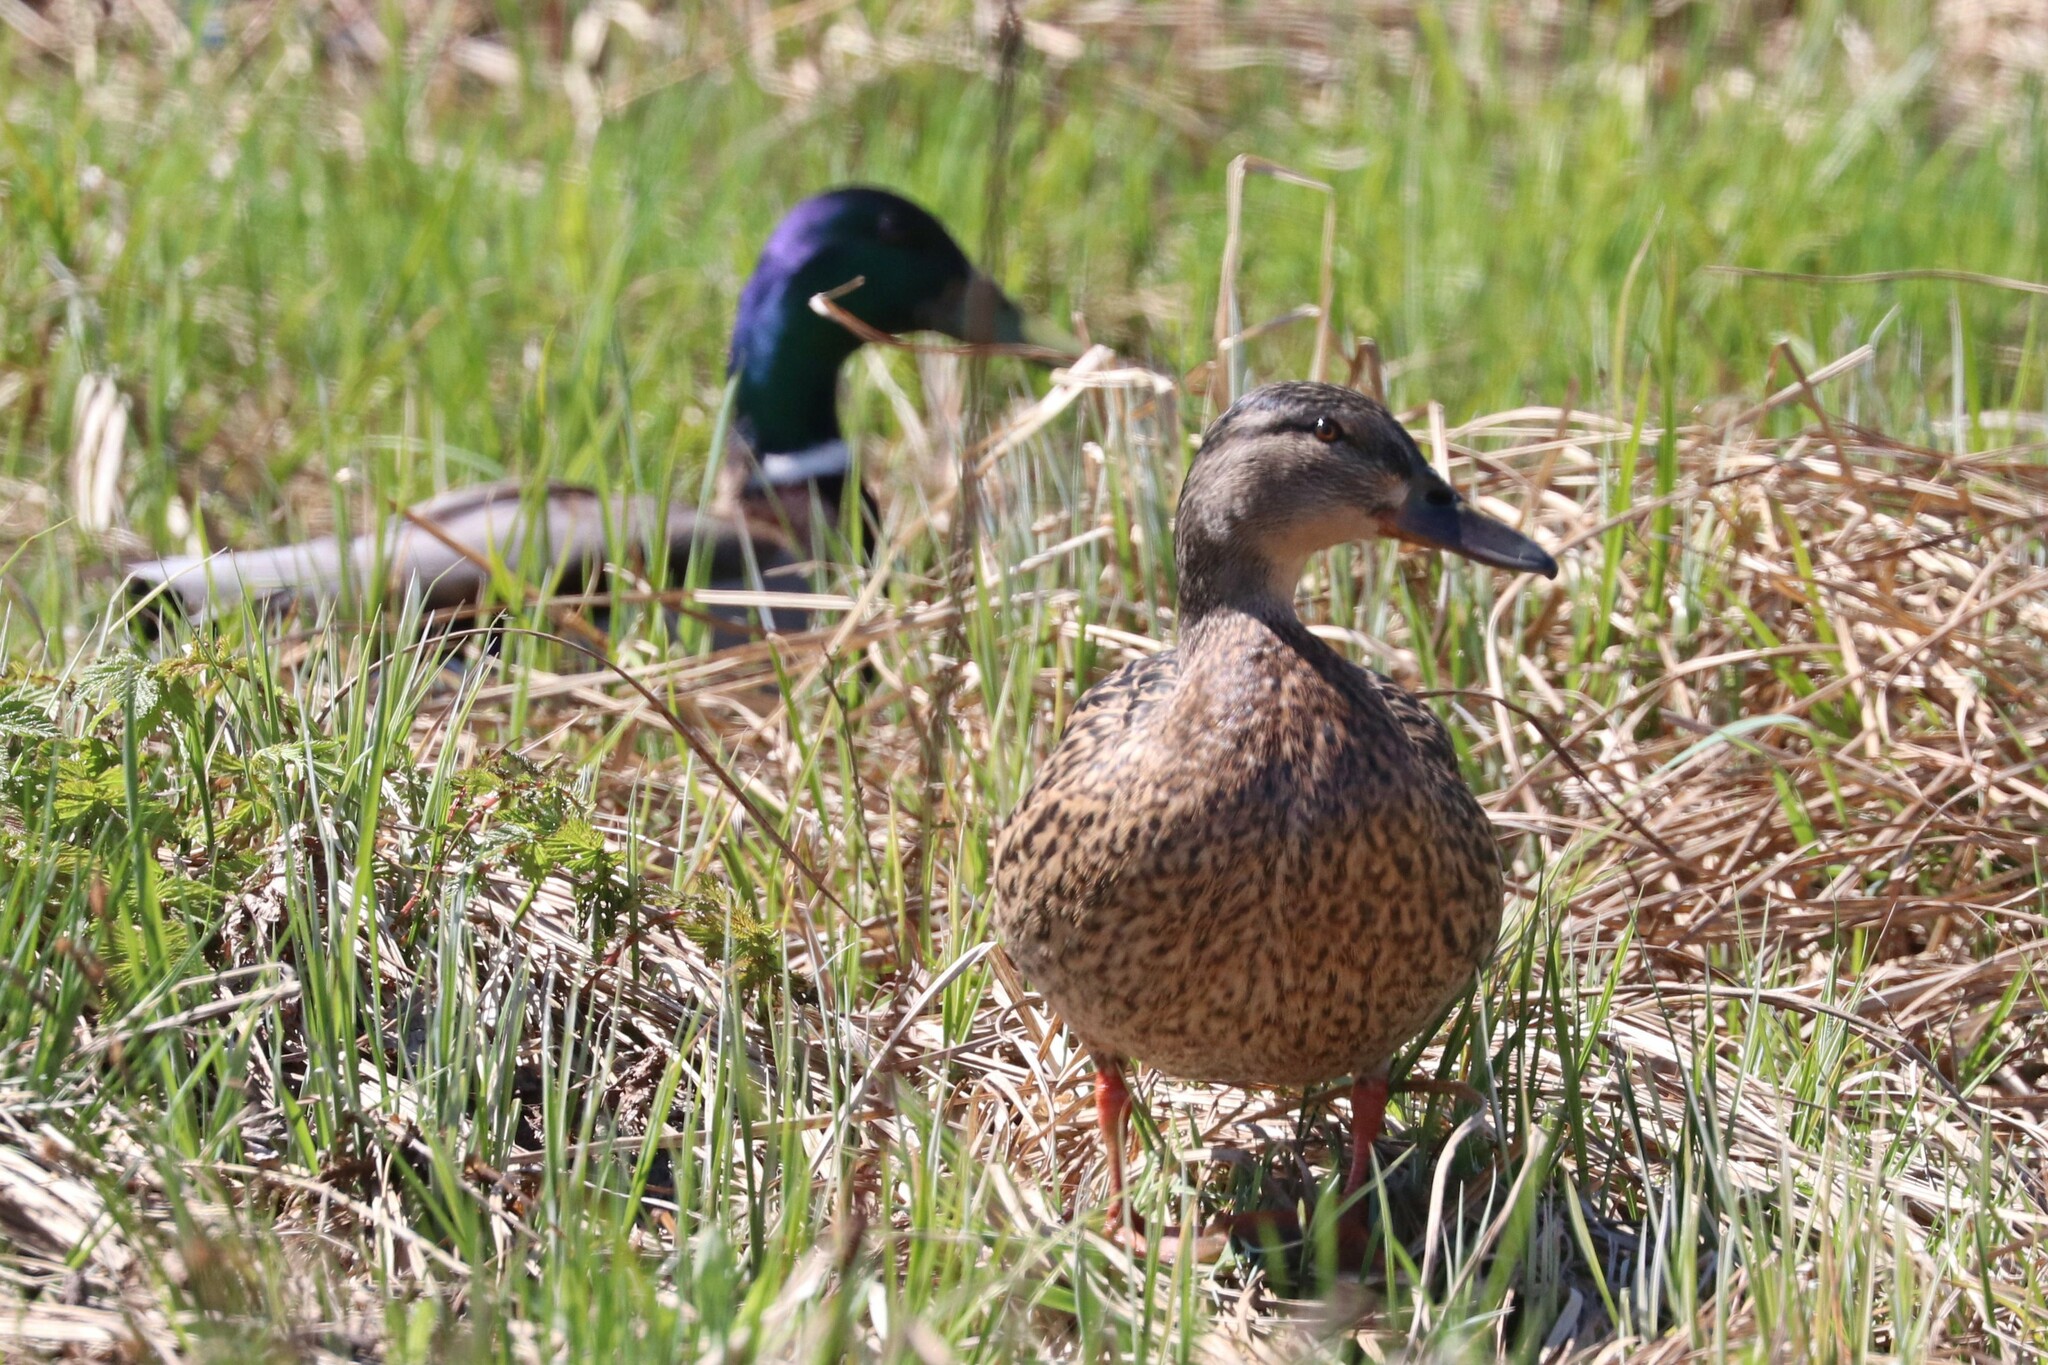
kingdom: Animalia
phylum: Chordata
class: Aves
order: Anseriformes
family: Anatidae
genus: Anas
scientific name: Anas platyrhynchos
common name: Mallard
